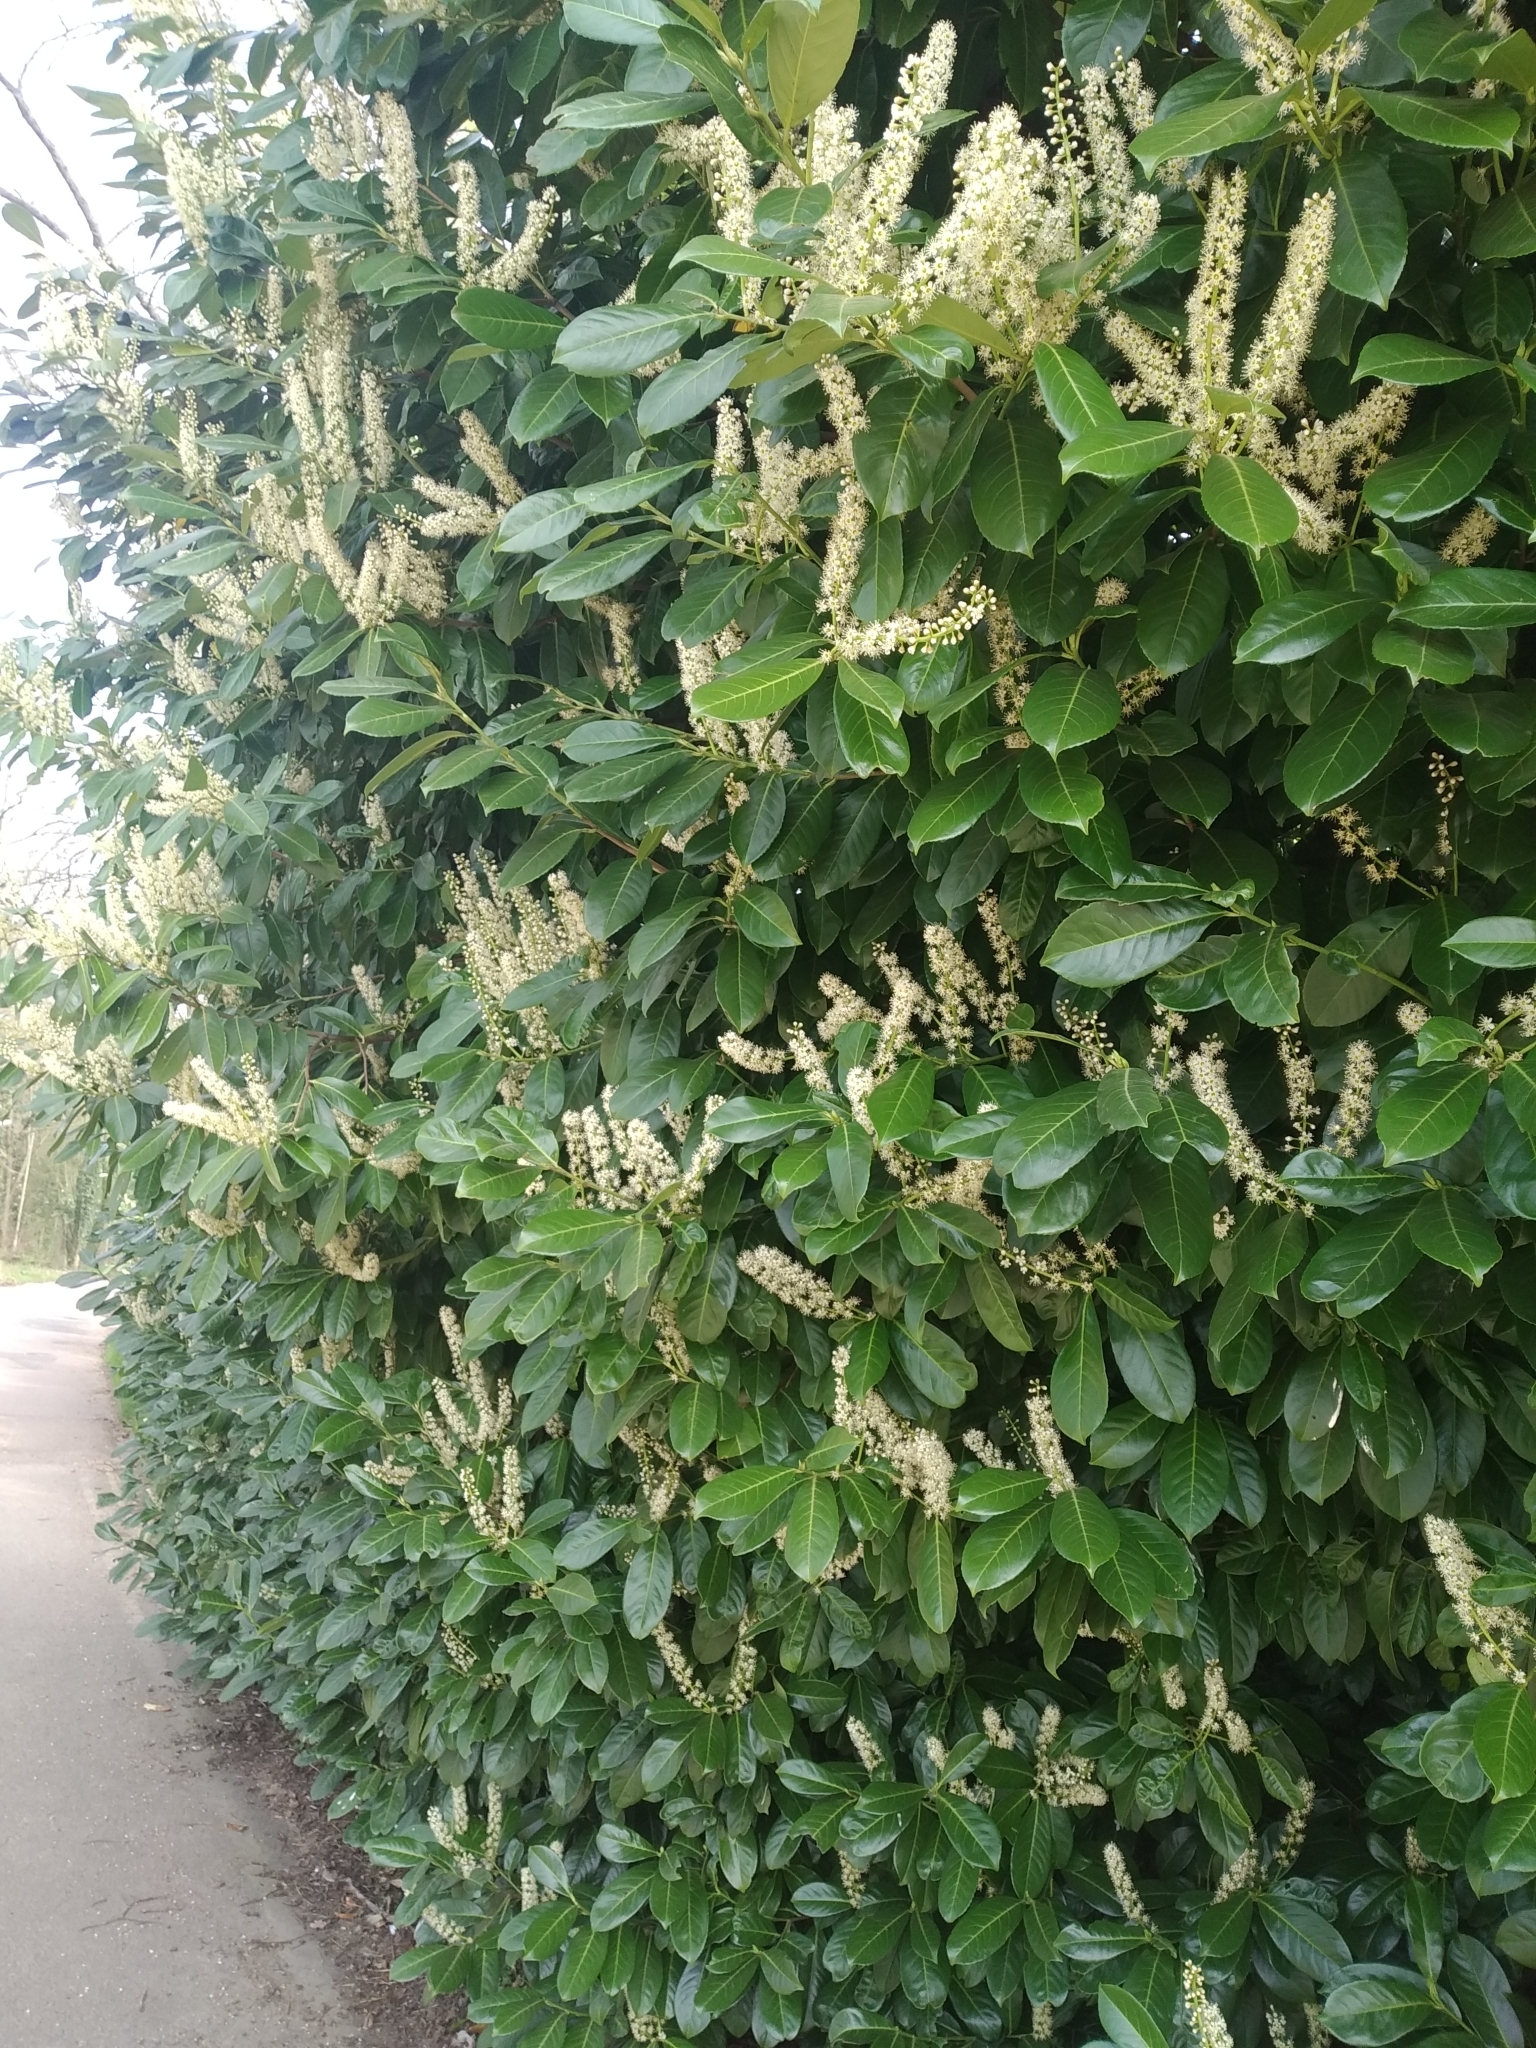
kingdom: Plantae
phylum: Tracheophyta
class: Magnoliopsida
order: Rosales
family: Rosaceae
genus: Prunus
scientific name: Prunus laurocerasus
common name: Cherry laurel
